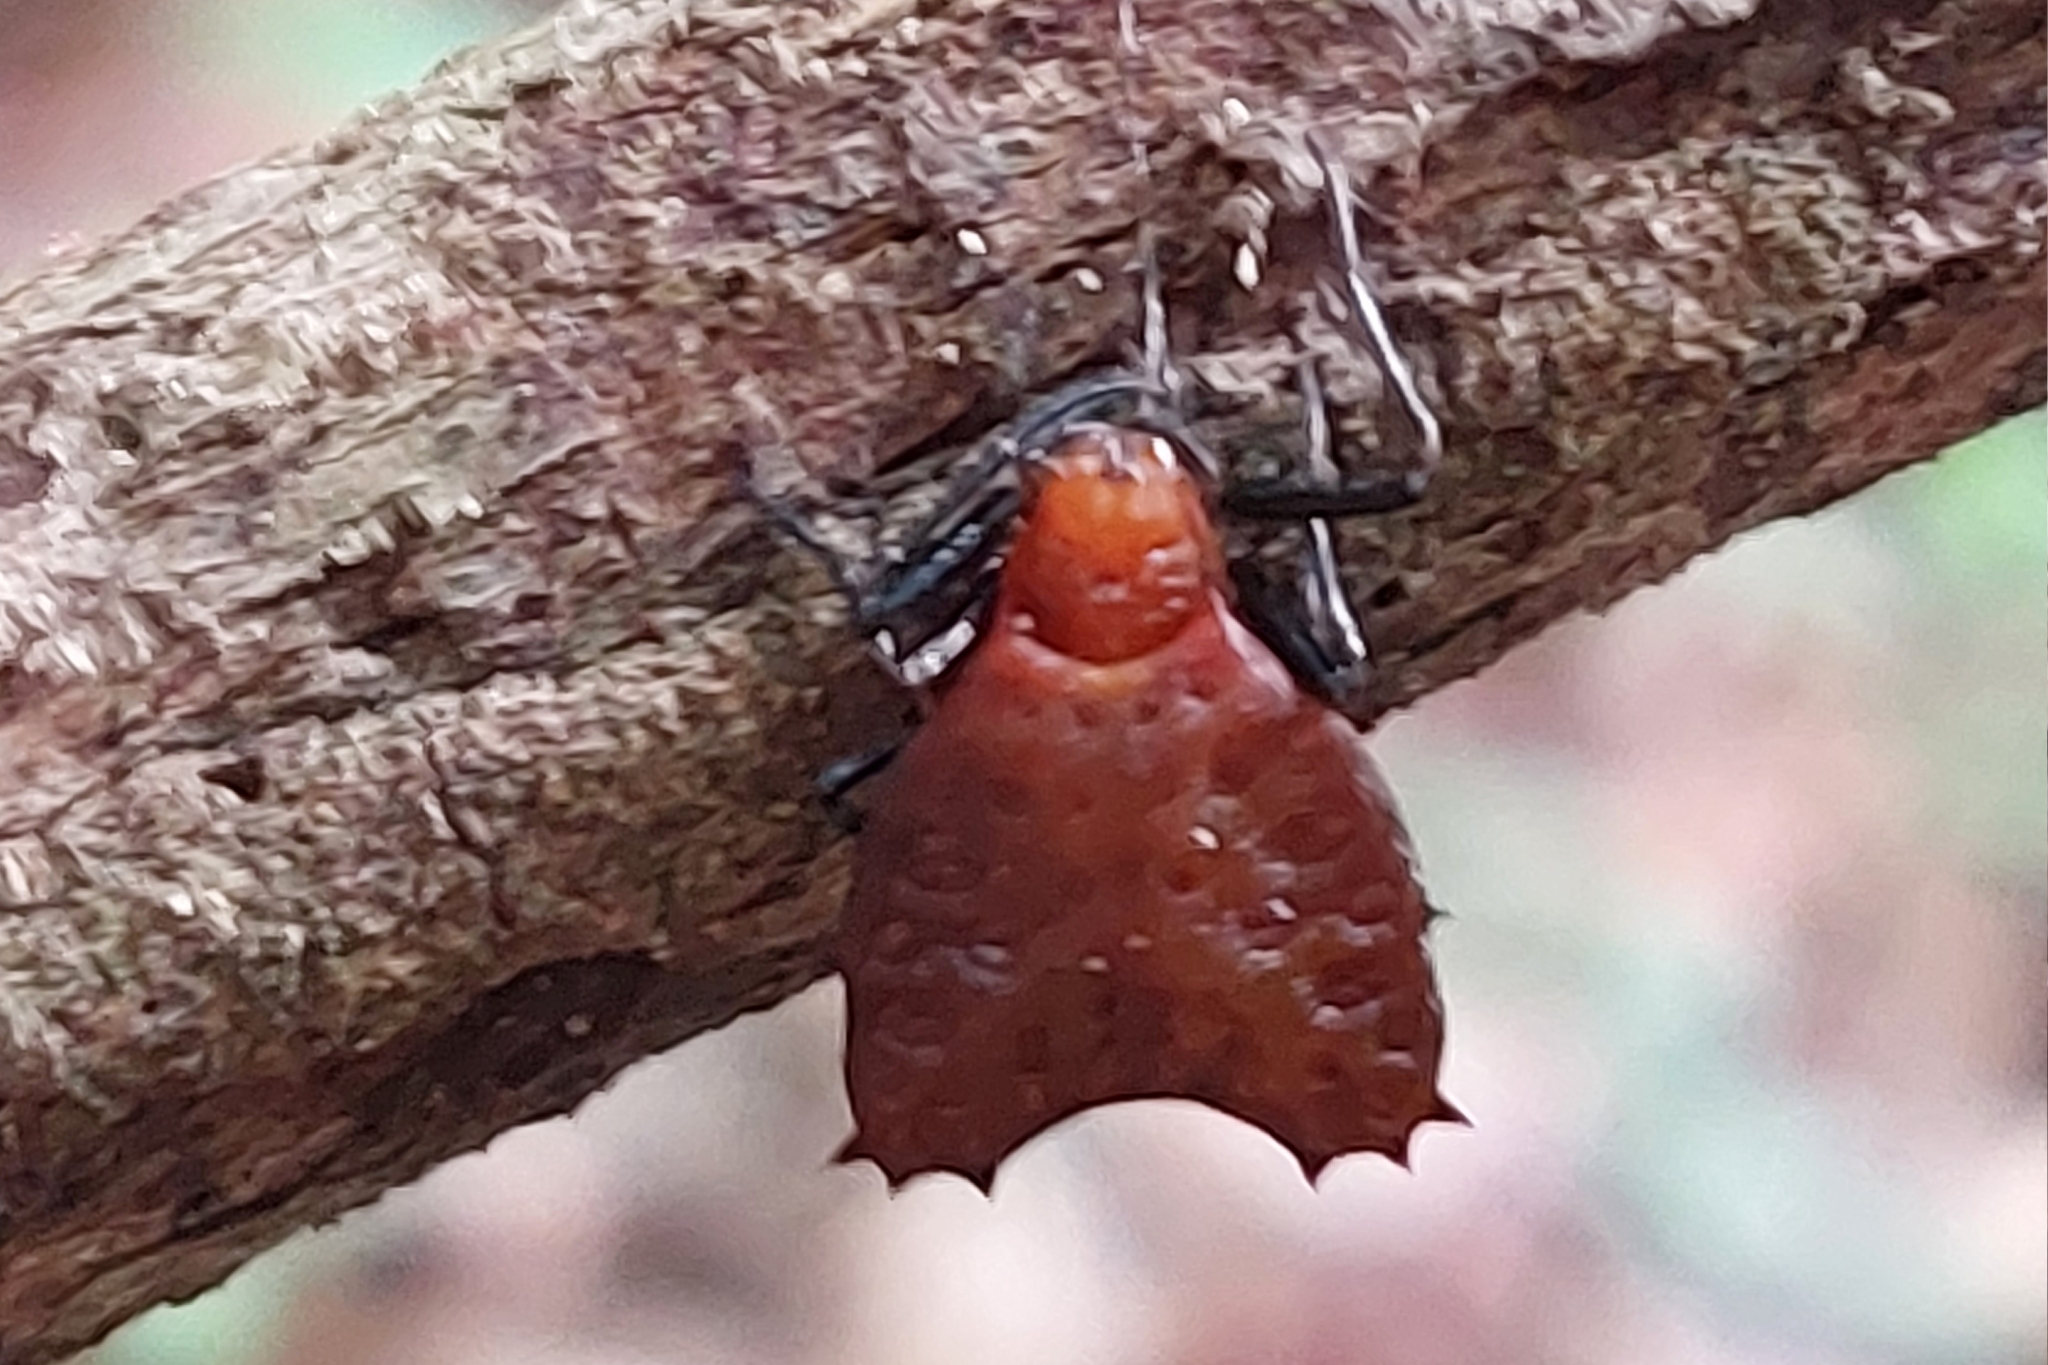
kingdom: Animalia
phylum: Arthropoda
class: Arachnida
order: Araneae
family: Araneidae
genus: Micrathena
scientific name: Micrathena clypeata
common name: Orb weavers
